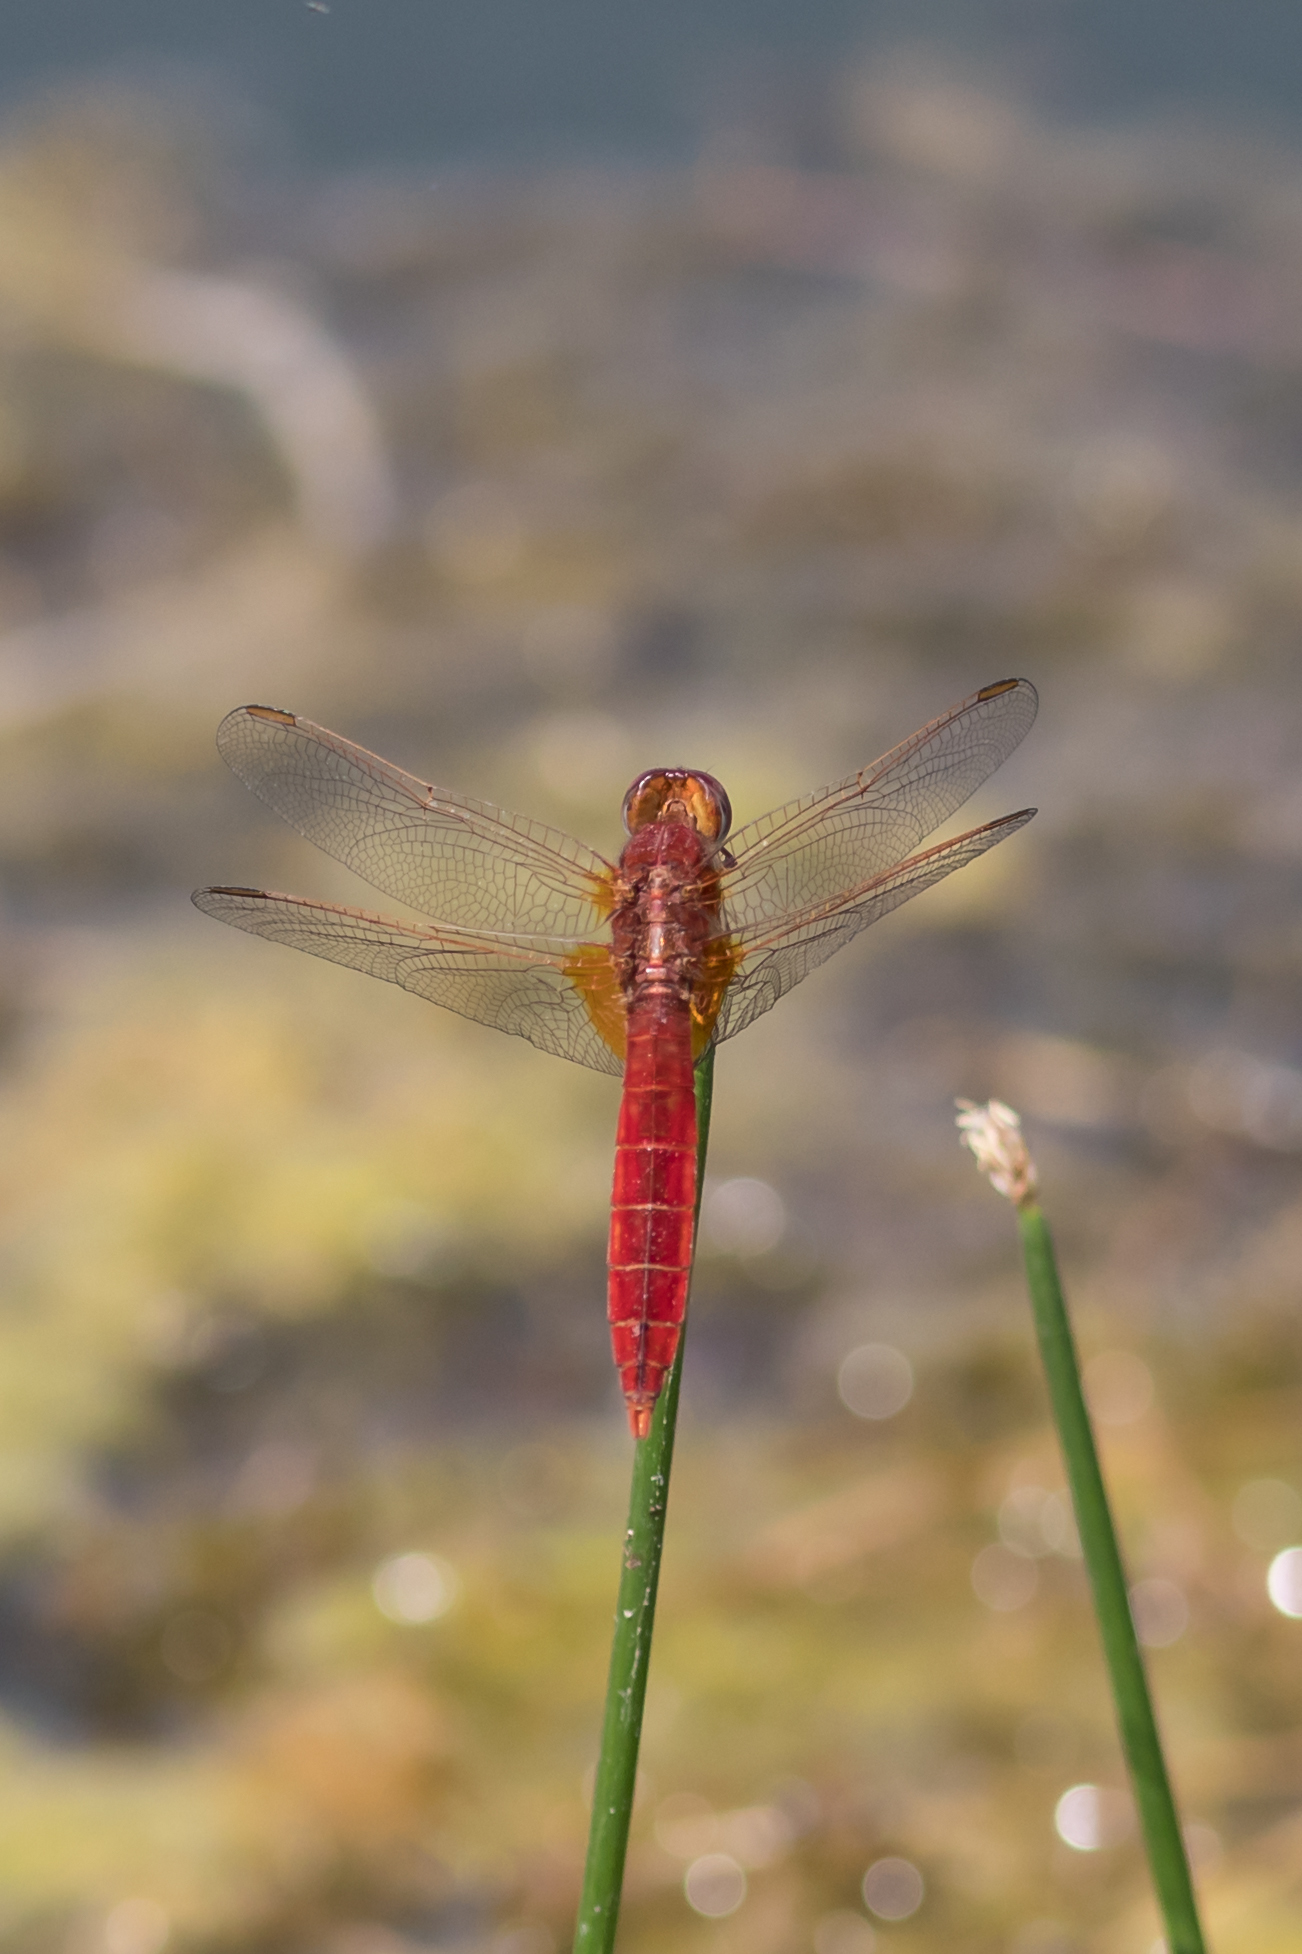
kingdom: Animalia
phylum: Arthropoda
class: Insecta
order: Odonata
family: Libellulidae
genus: Crocothemis
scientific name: Crocothemis erythraea
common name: Scarlet dragonfly
